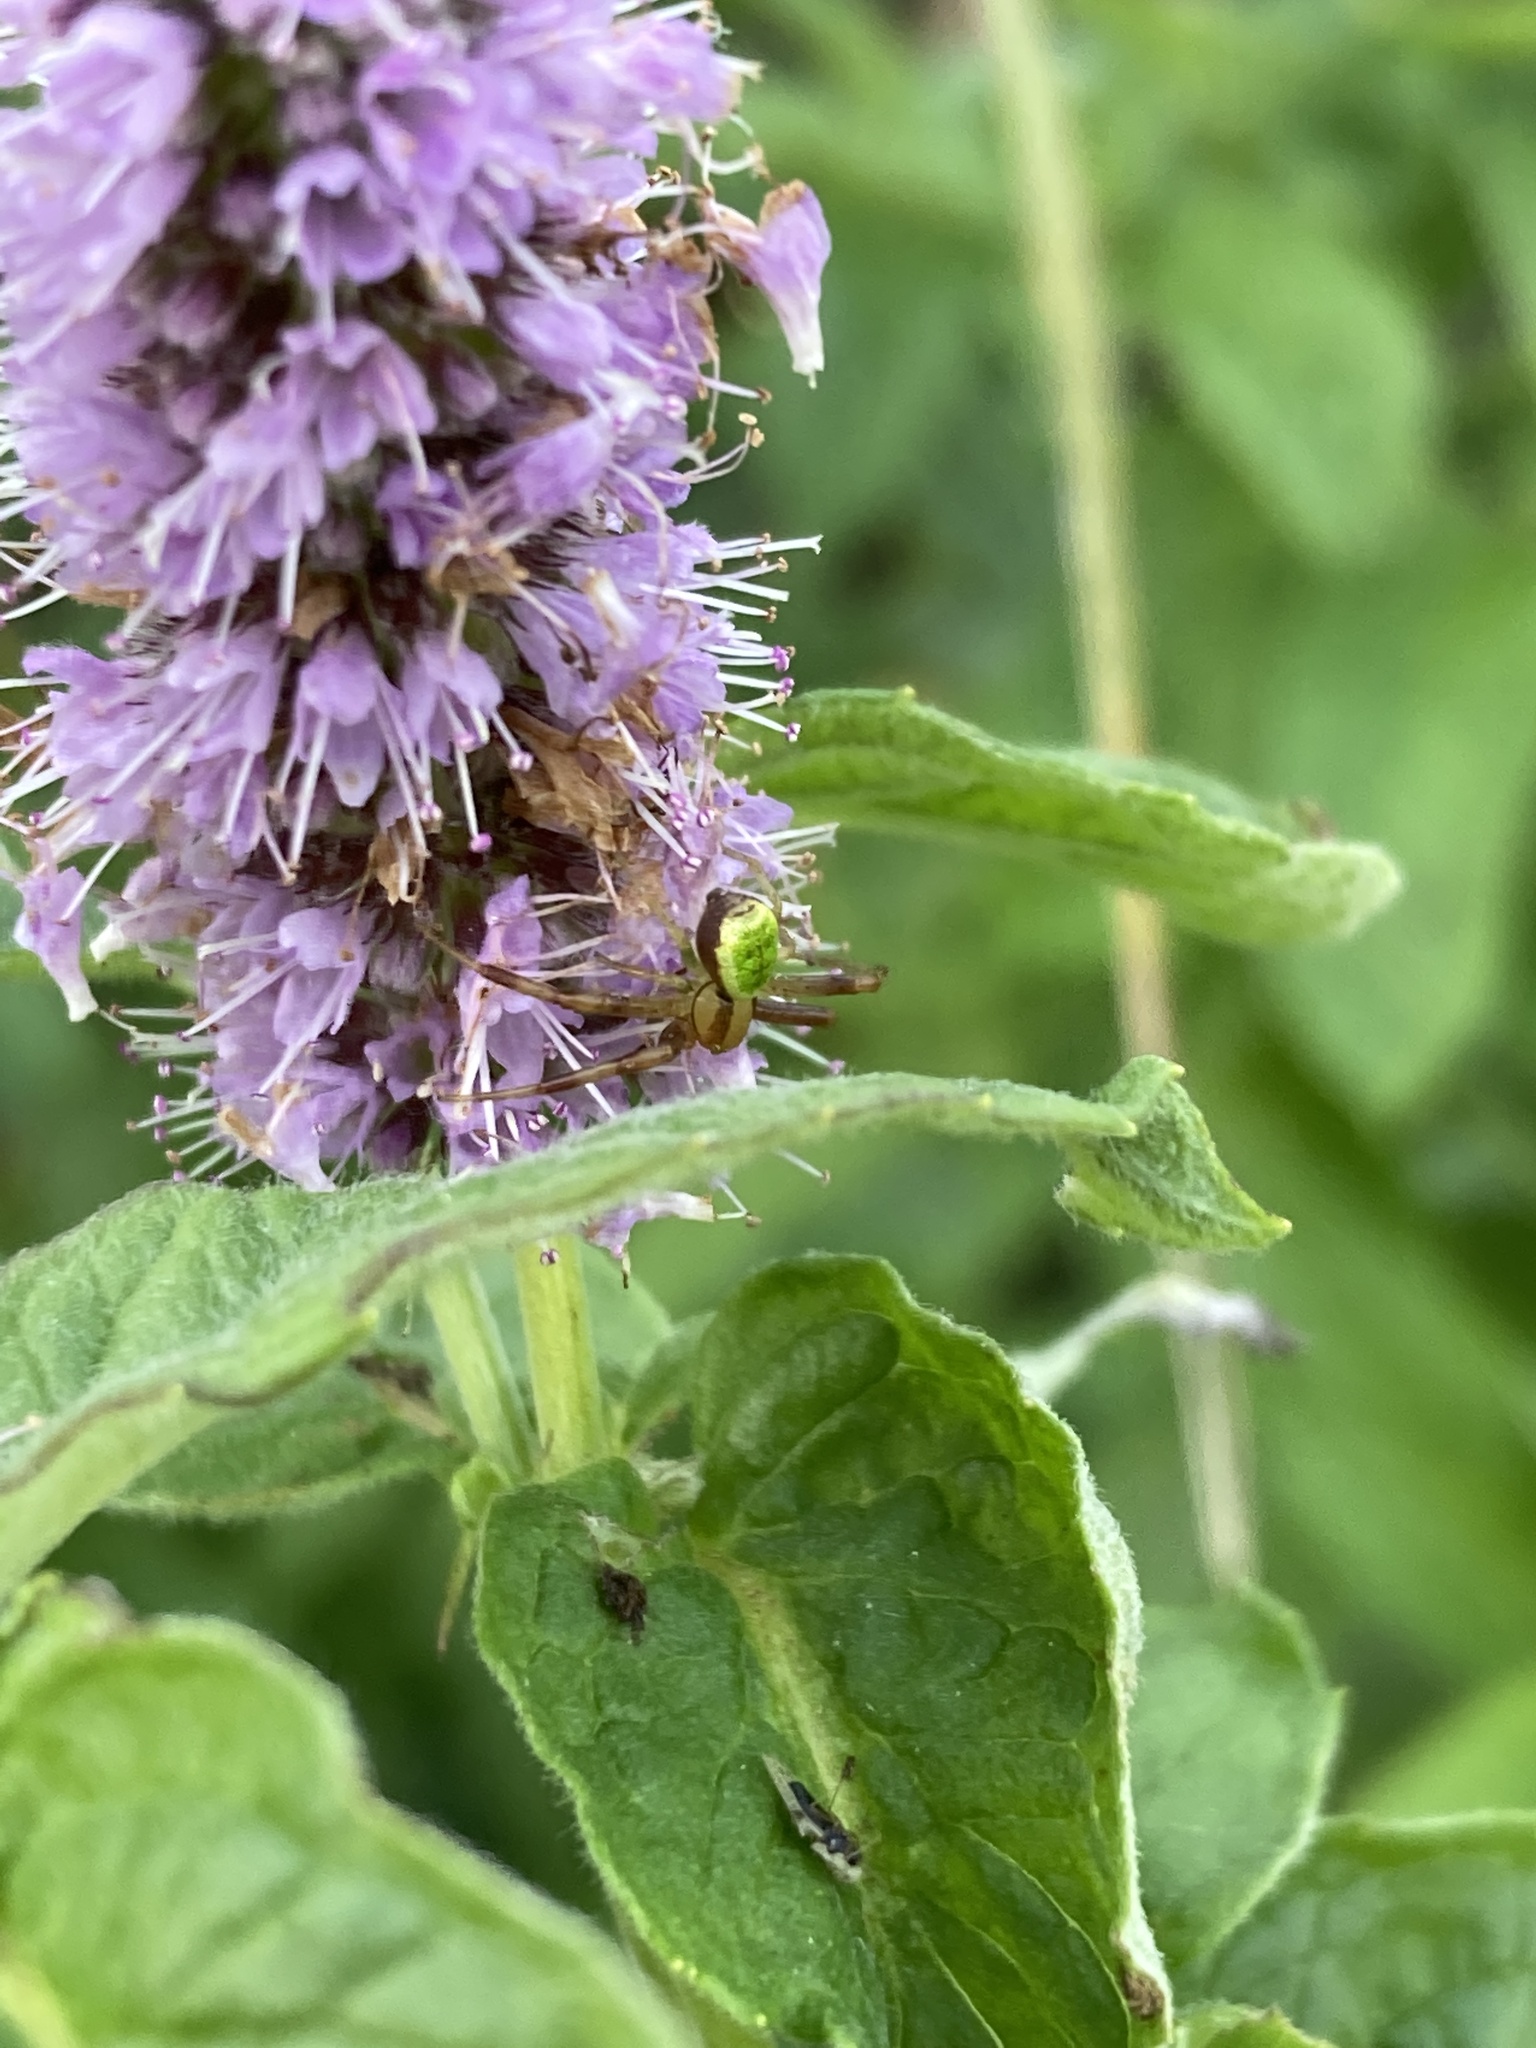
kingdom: Animalia
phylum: Arthropoda
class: Arachnida
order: Araneae
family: Thomisidae
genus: Ebrechtella
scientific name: Ebrechtella tricuspidata
